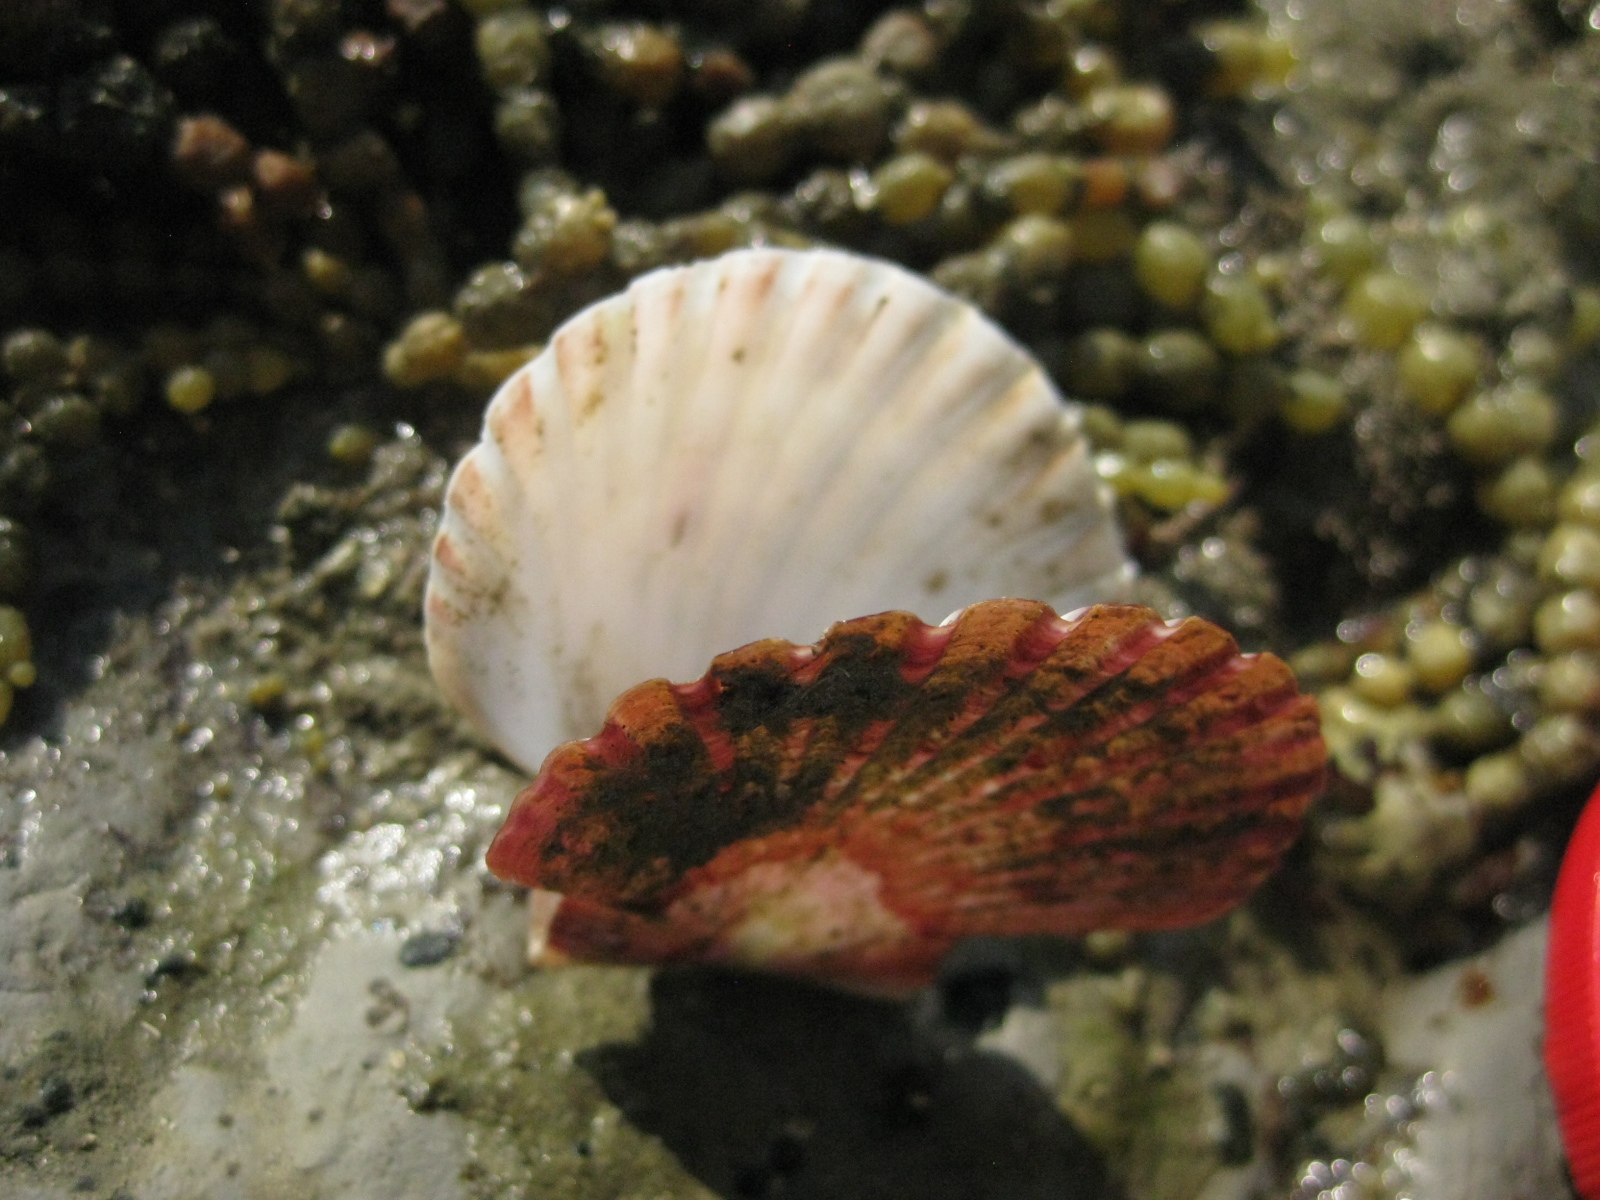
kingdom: Animalia
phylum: Mollusca
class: Bivalvia
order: Pectinida
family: Pectinidae
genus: Pecten
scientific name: Pecten novaezelandiae
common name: New zealand scallop
